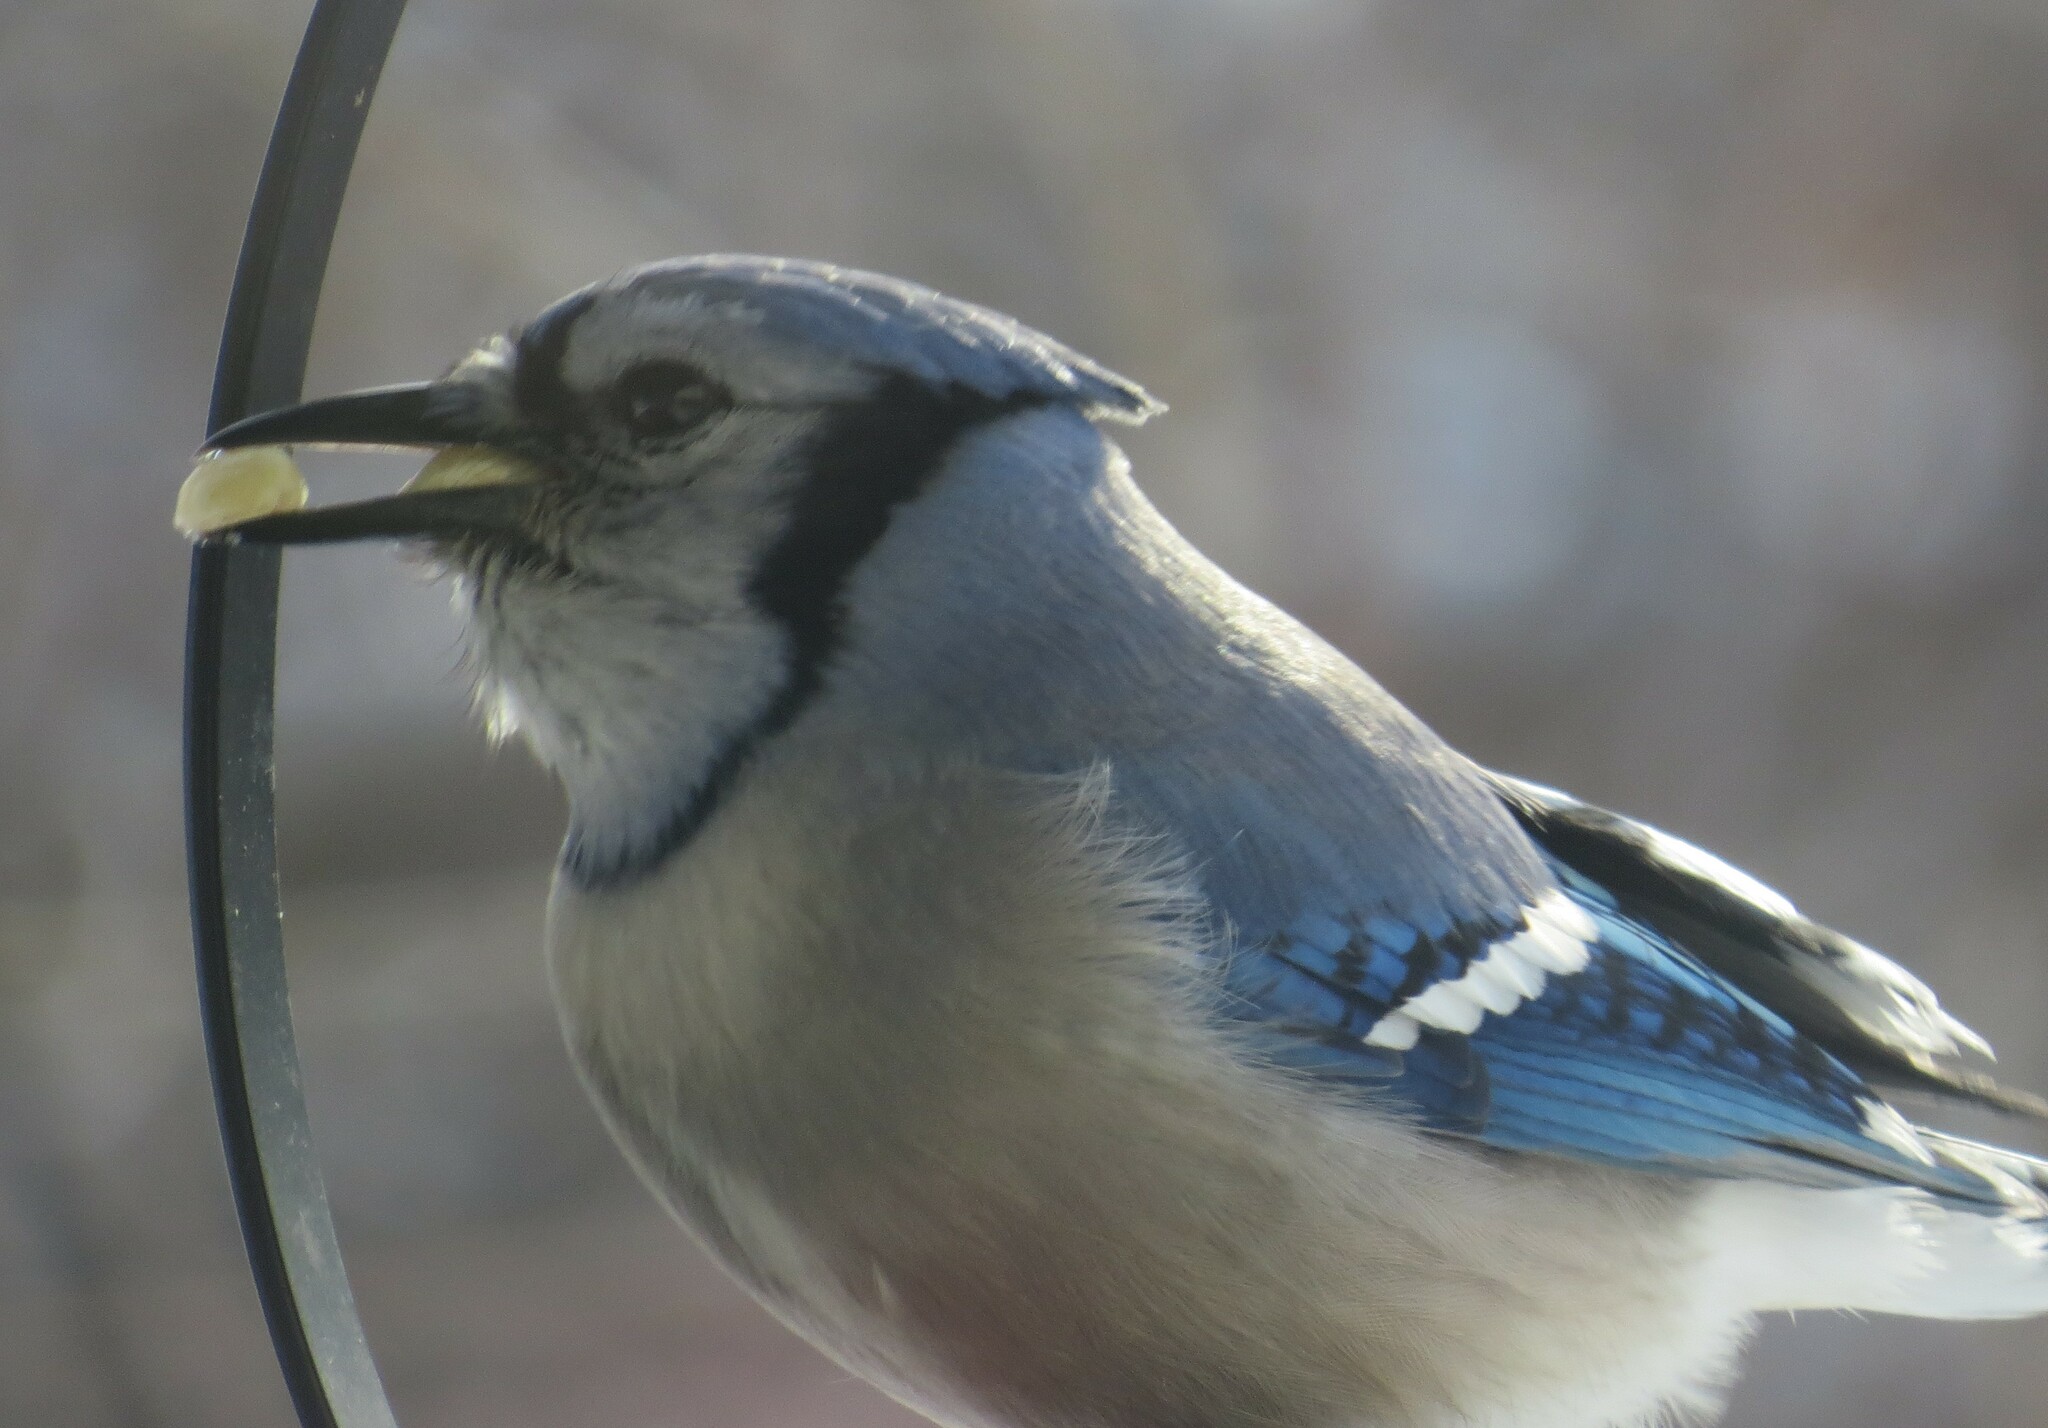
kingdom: Animalia
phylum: Chordata
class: Aves
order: Passeriformes
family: Corvidae
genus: Cyanocitta
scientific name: Cyanocitta cristata
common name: Blue jay
